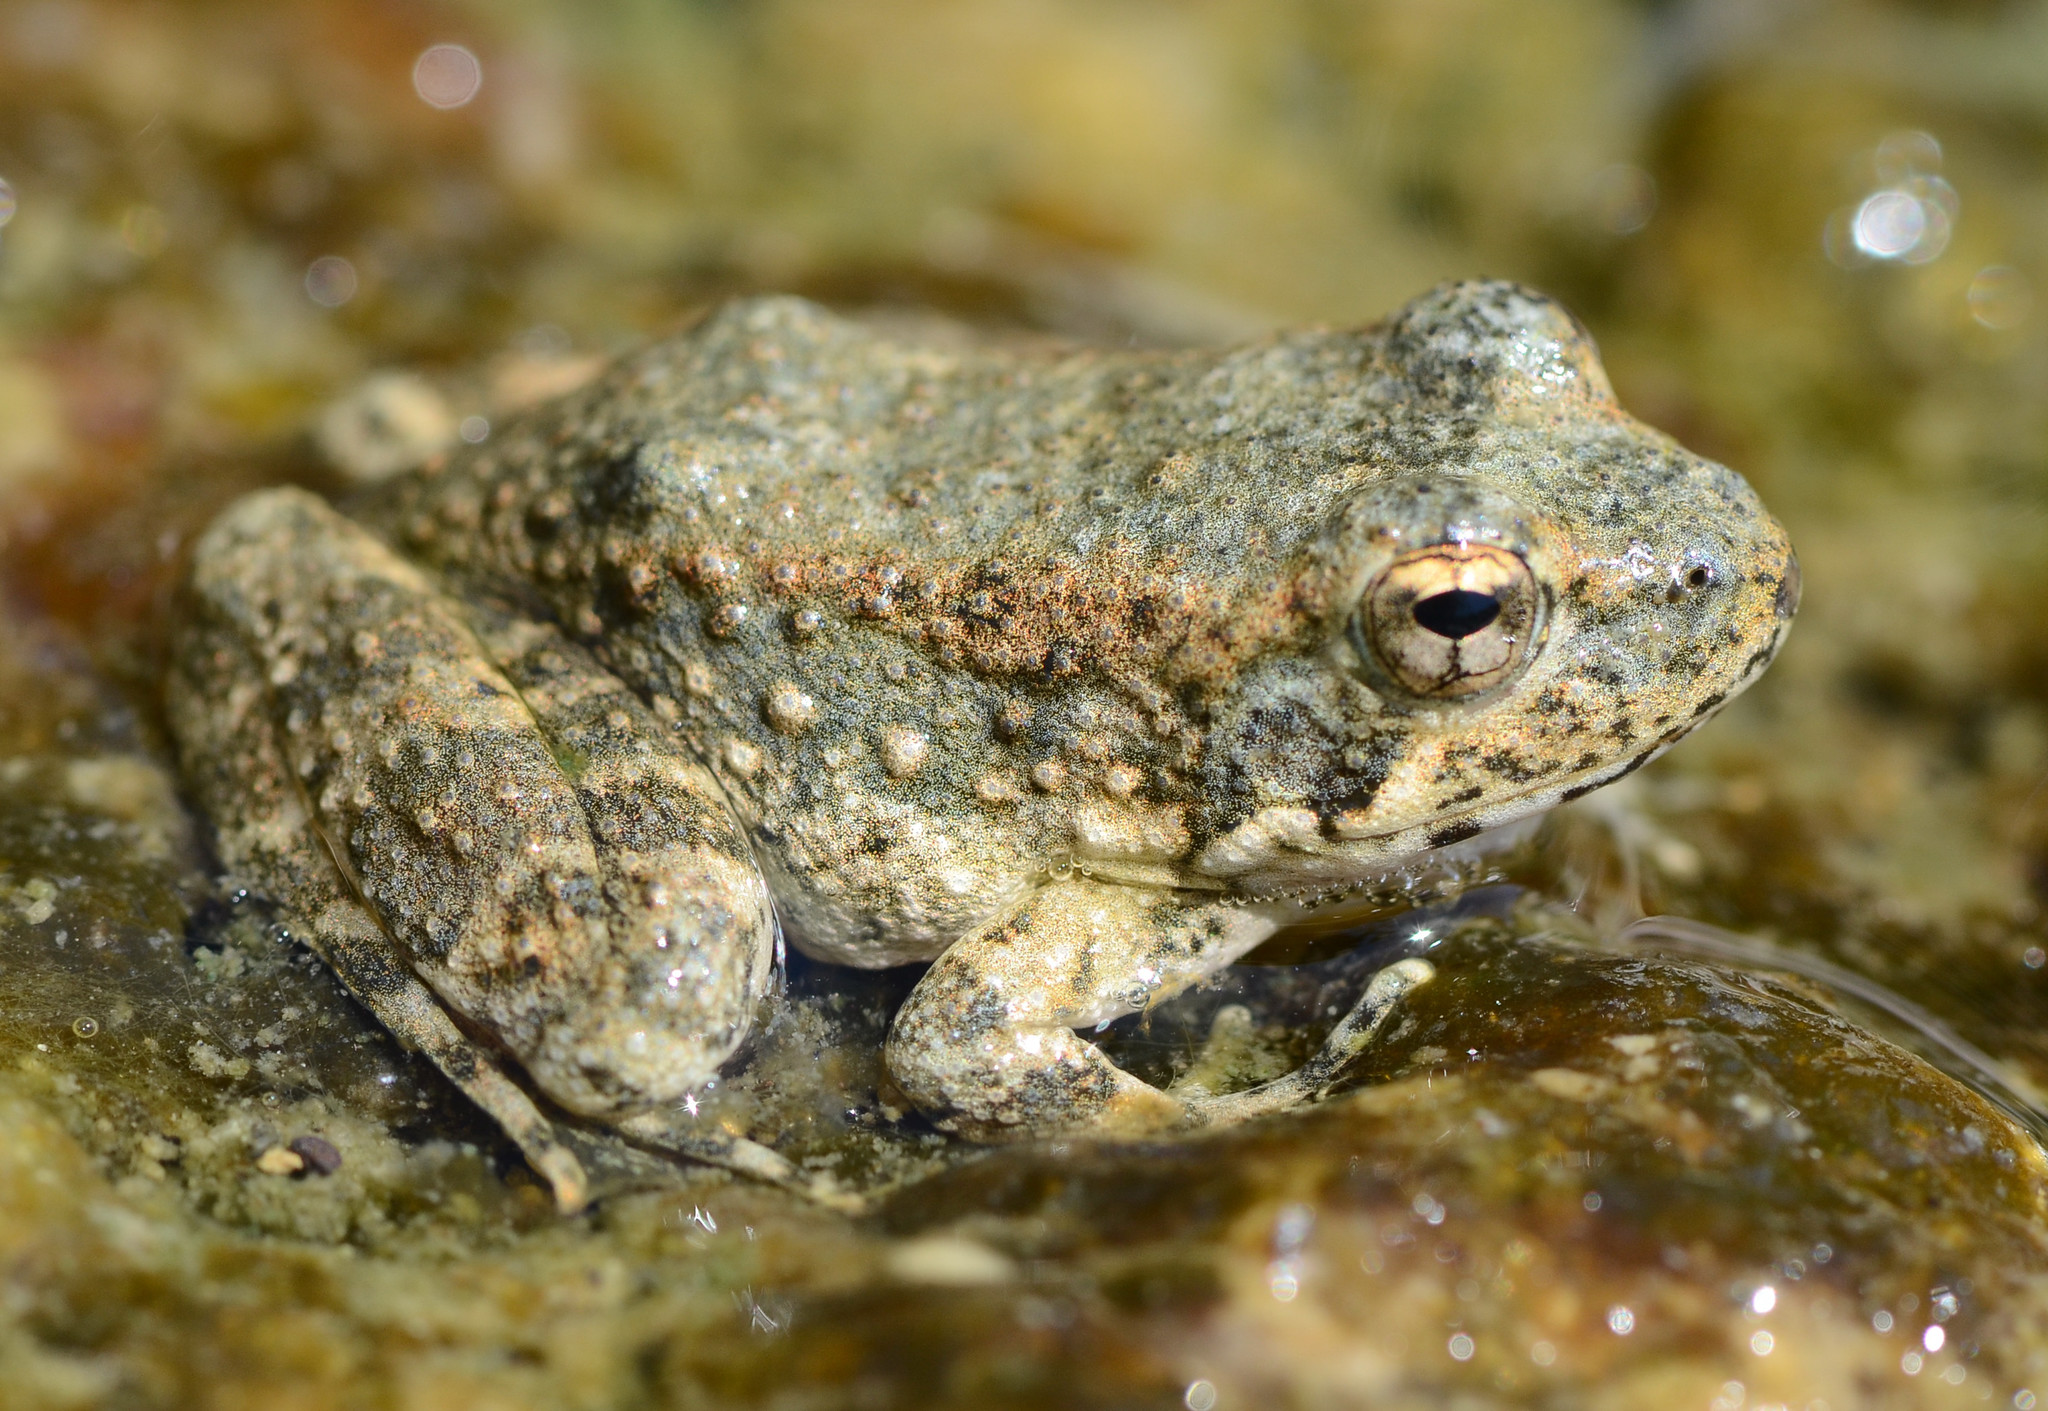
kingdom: Animalia
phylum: Chordata
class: Amphibia
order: Anura
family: Ranidae
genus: Rana
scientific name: Rana boylii
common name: Foothill yellow-legged frog
